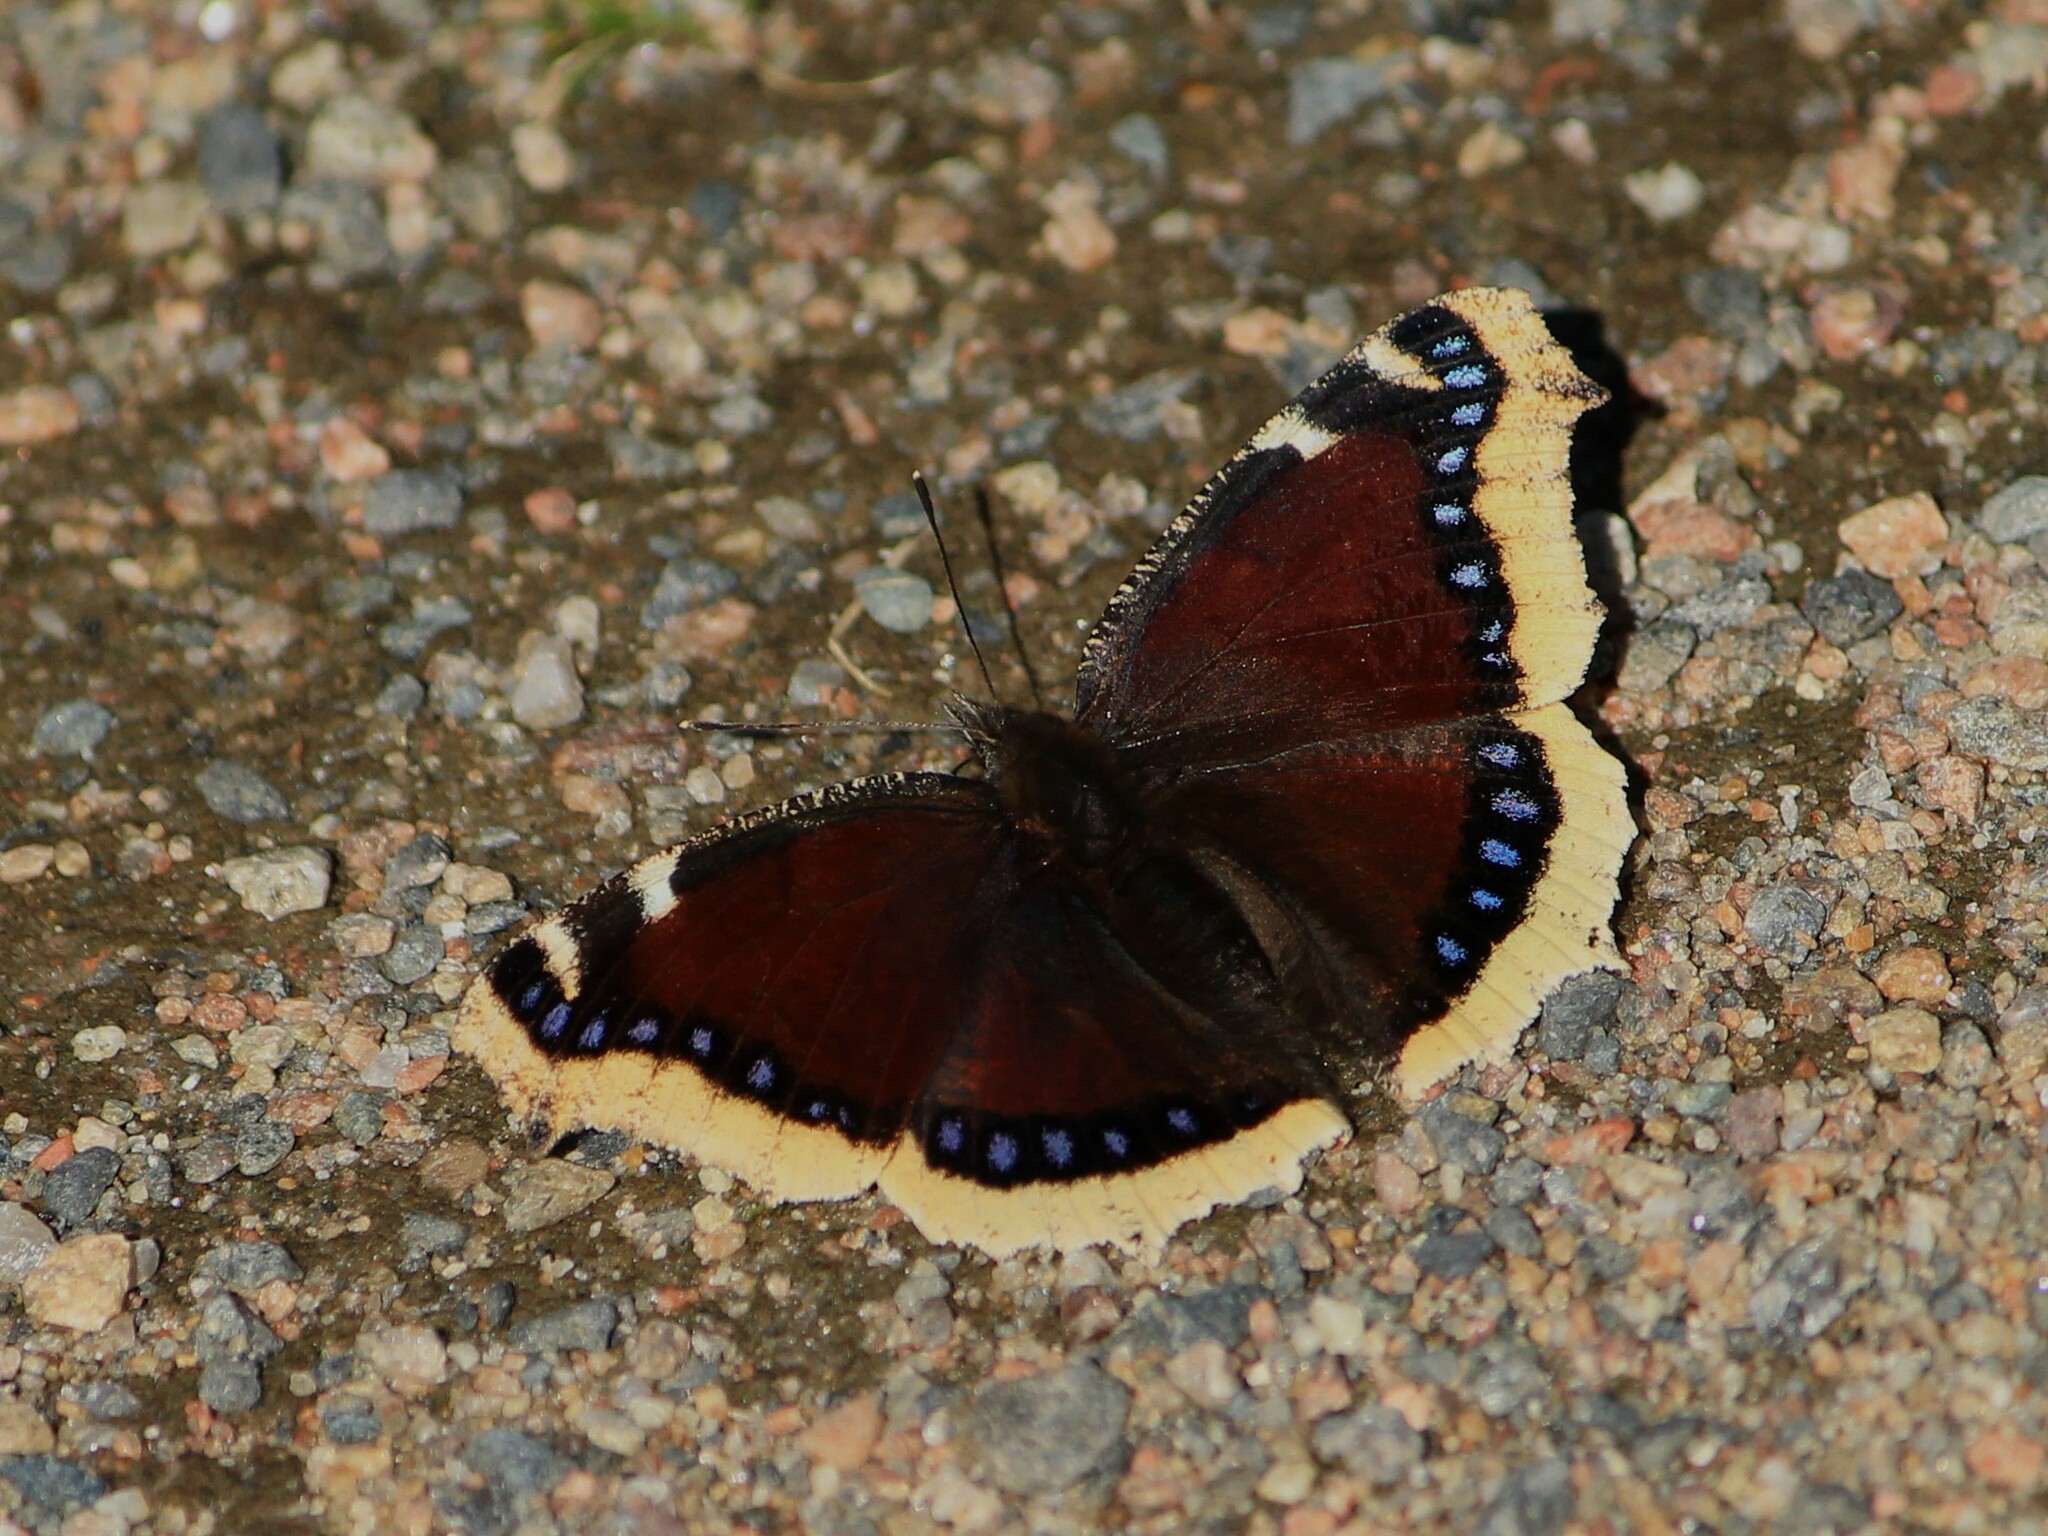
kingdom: Animalia
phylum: Arthropoda
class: Insecta
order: Lepidoptera
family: Nymphalidae
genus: Nymphalis
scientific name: Nymphalis antiopa
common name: Camberwell beauty
